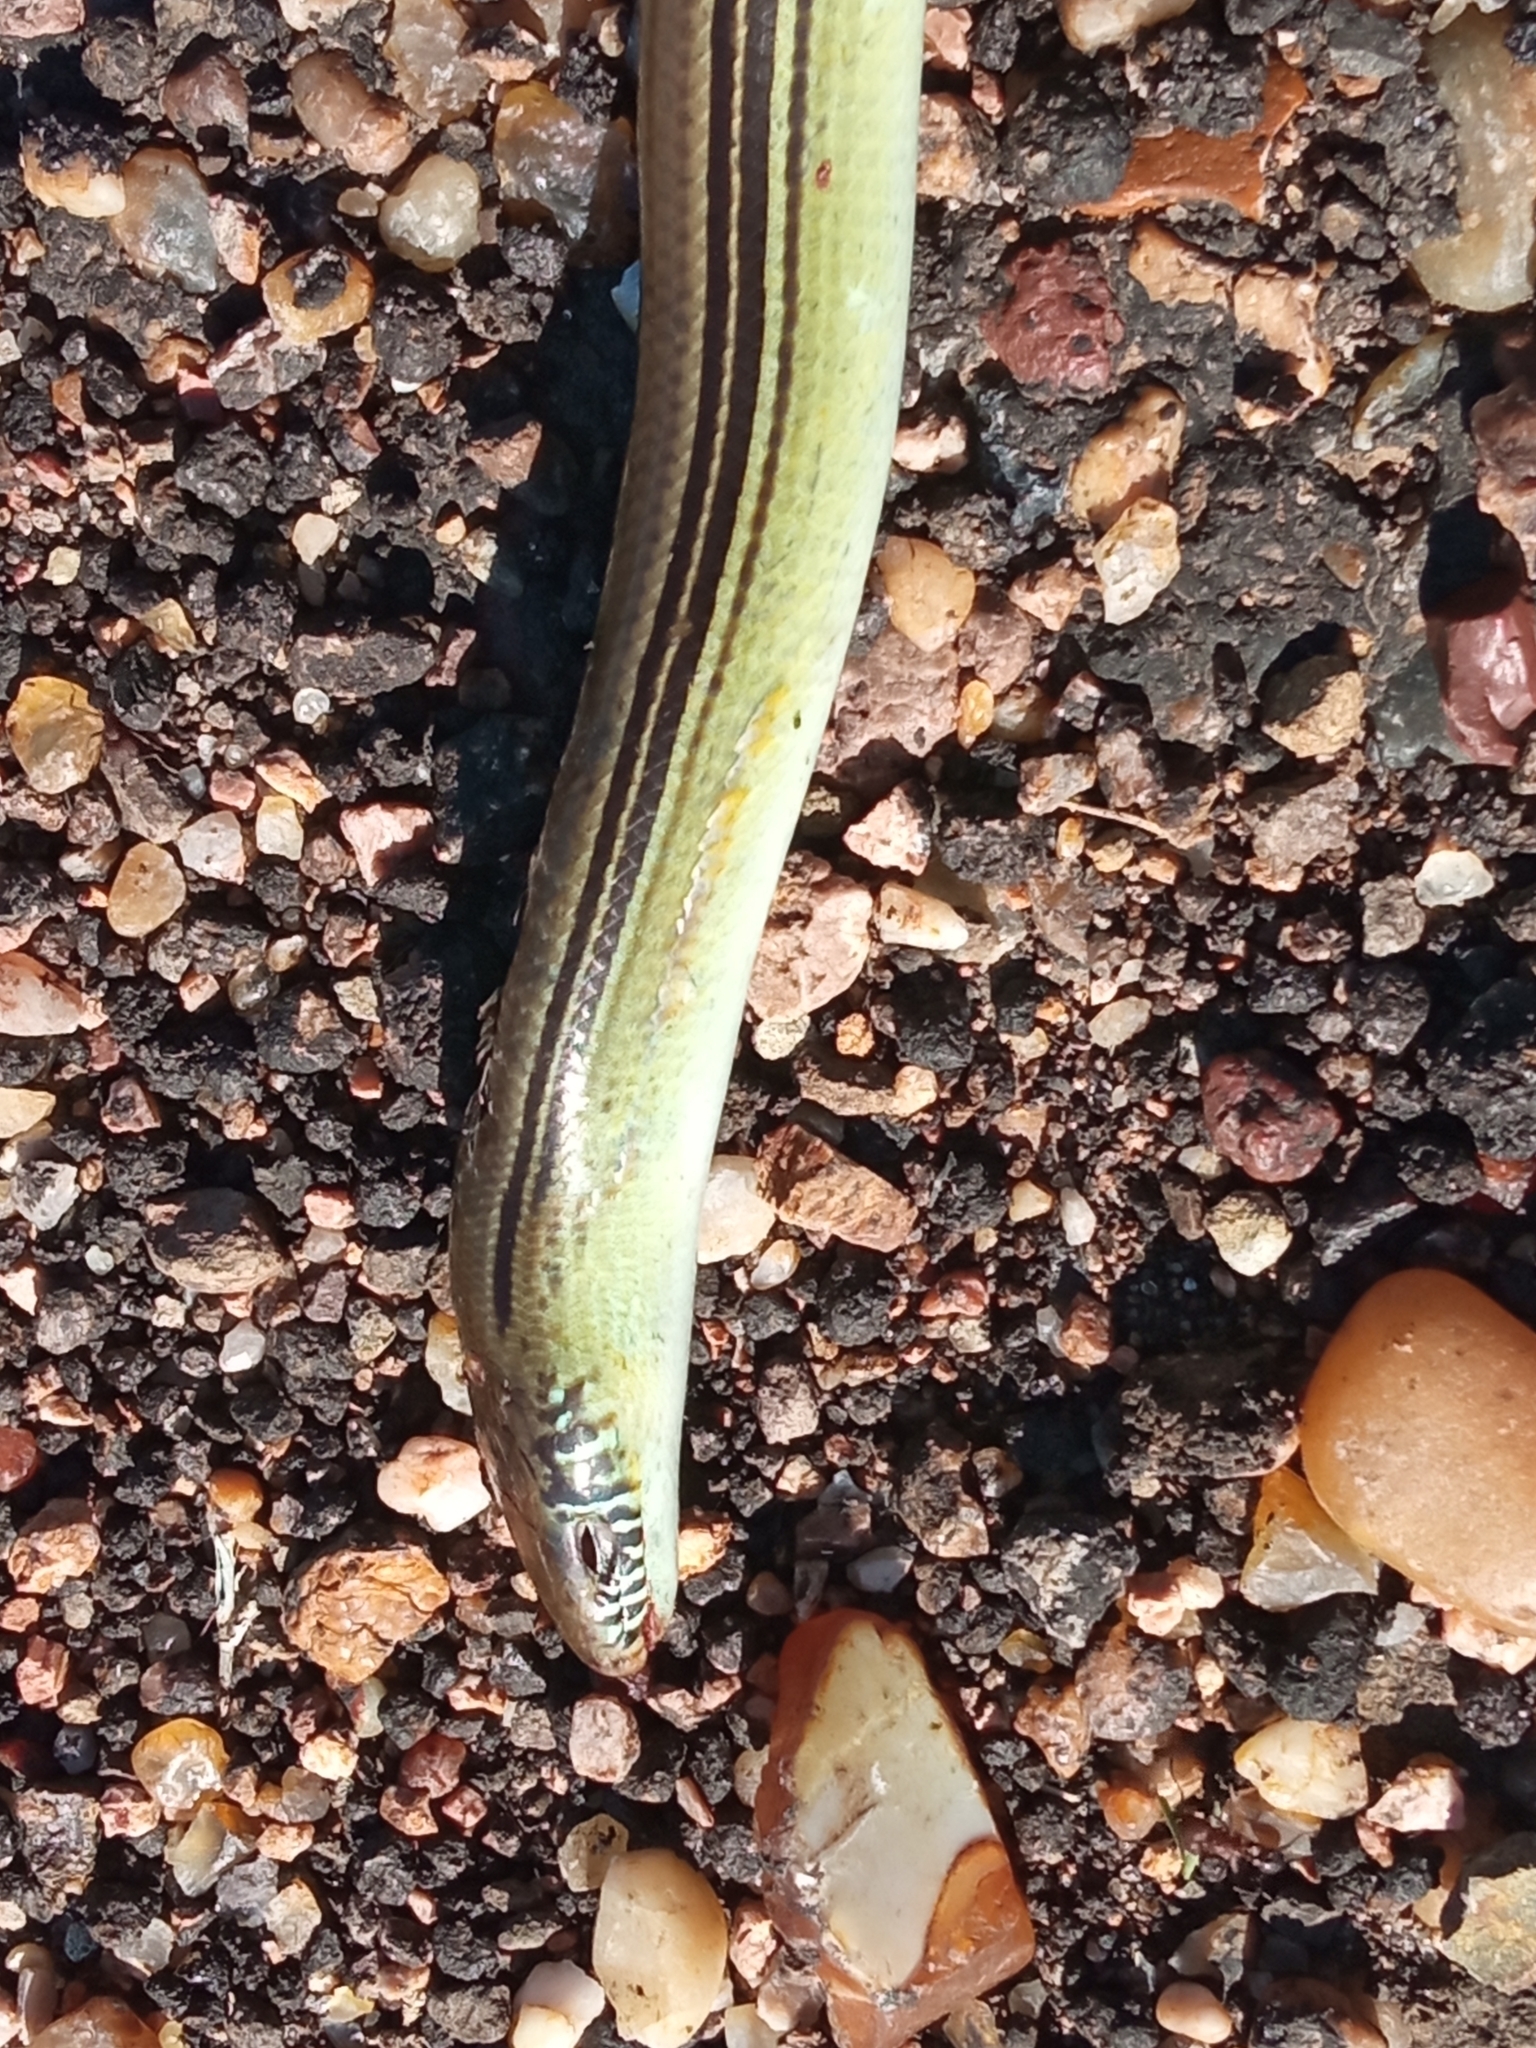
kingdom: Animalia
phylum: Chordata
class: Squamata
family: Diploglossidae
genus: Ophiodes
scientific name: Ophiodes striatus
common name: Striped worm lizard
